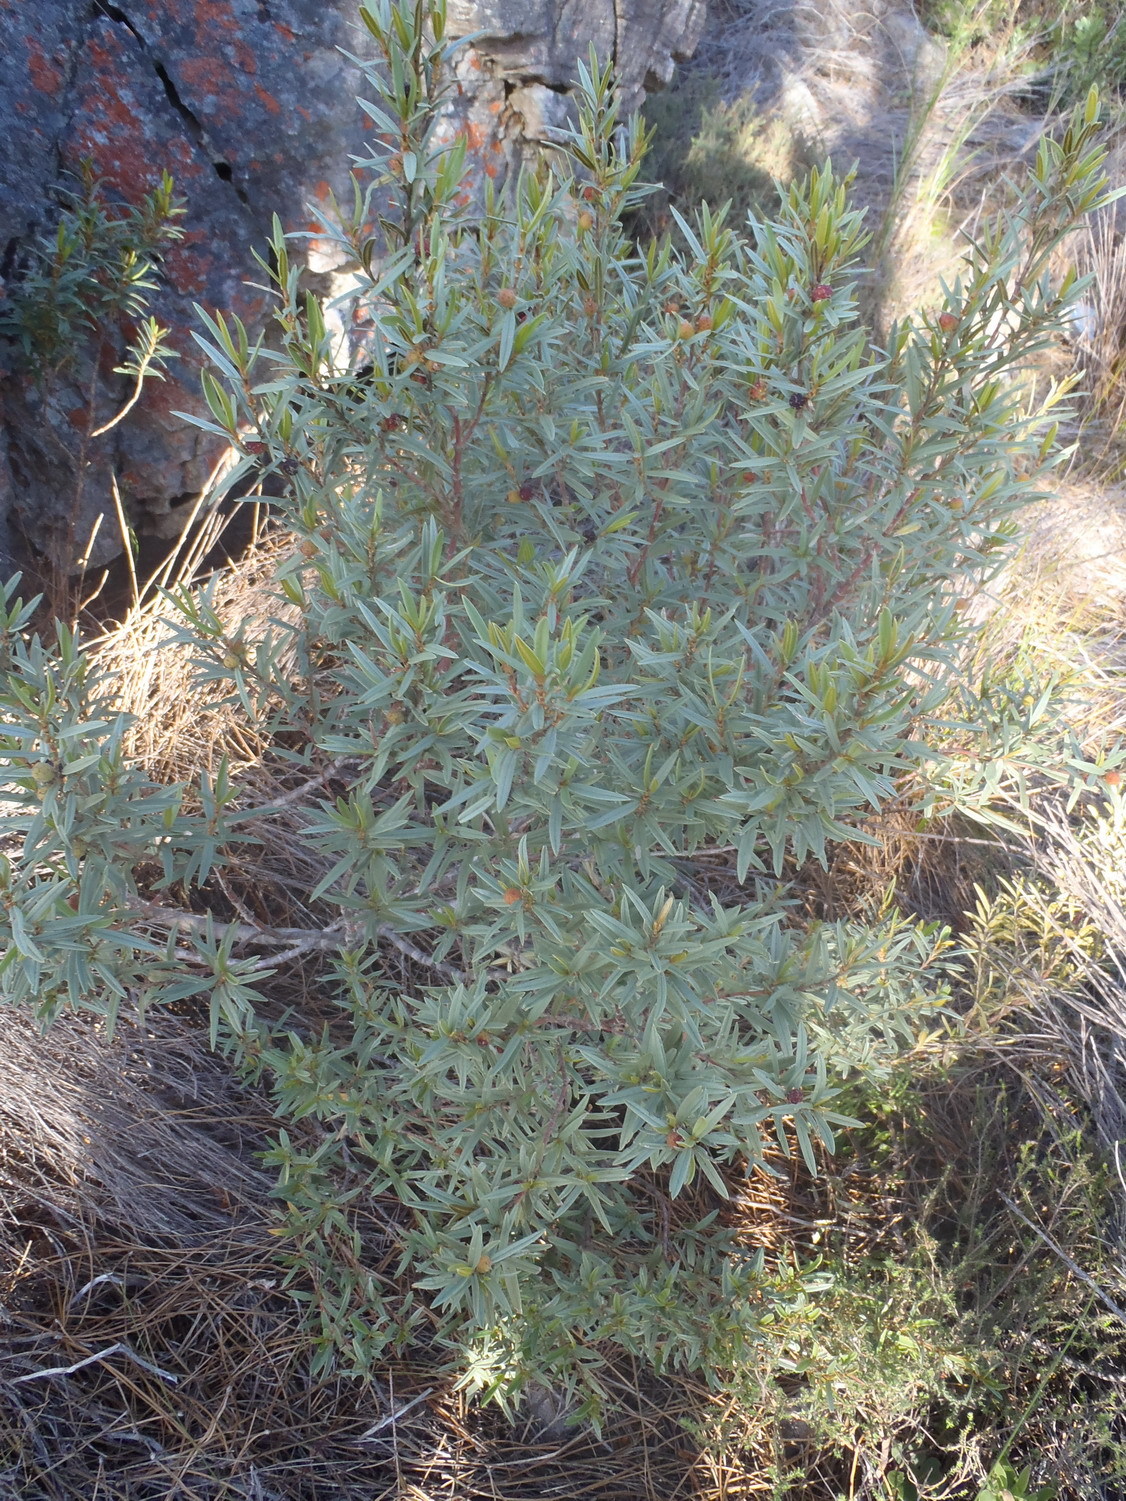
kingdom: Plantae
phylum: Tracheophyta
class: Magnoliopsida
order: Cornales
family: Grubbiaceae
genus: Grubbia
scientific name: Grubbia tomentosa
